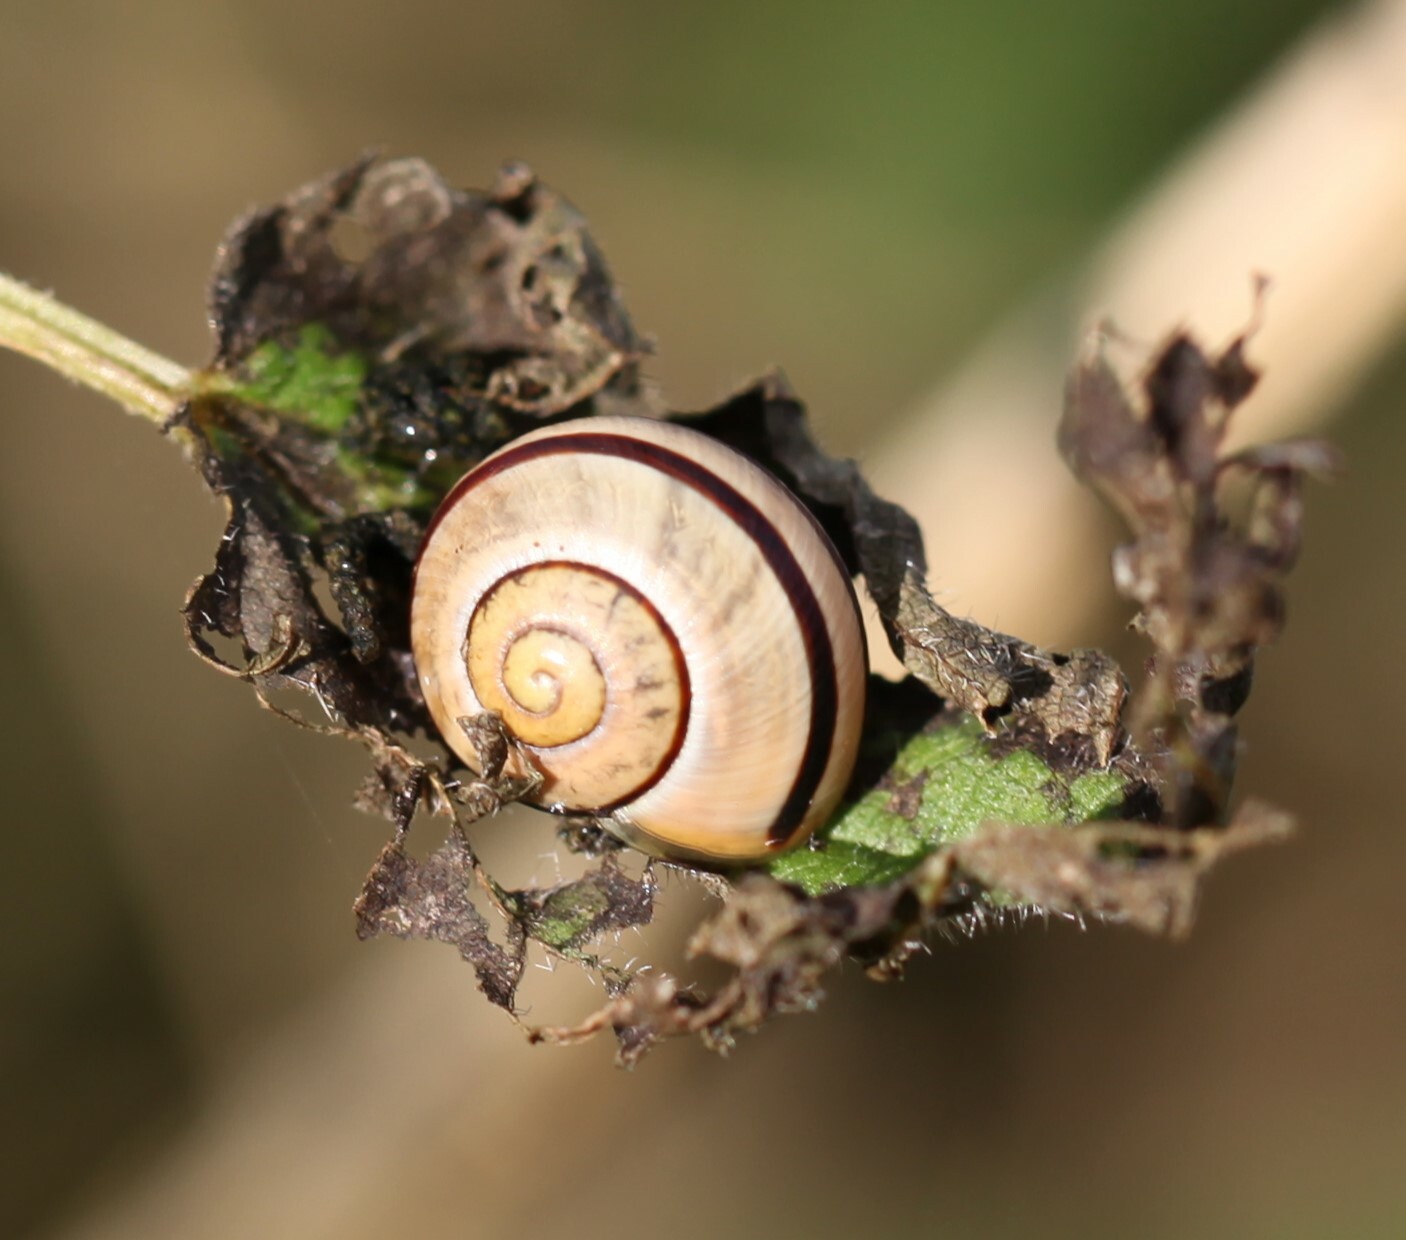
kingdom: Animalia
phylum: Mollusca
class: Gastropoda
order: Stylommatophora
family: Helicidae
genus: Cepaea
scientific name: Cepaea nemoralis
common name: Grovesnail
